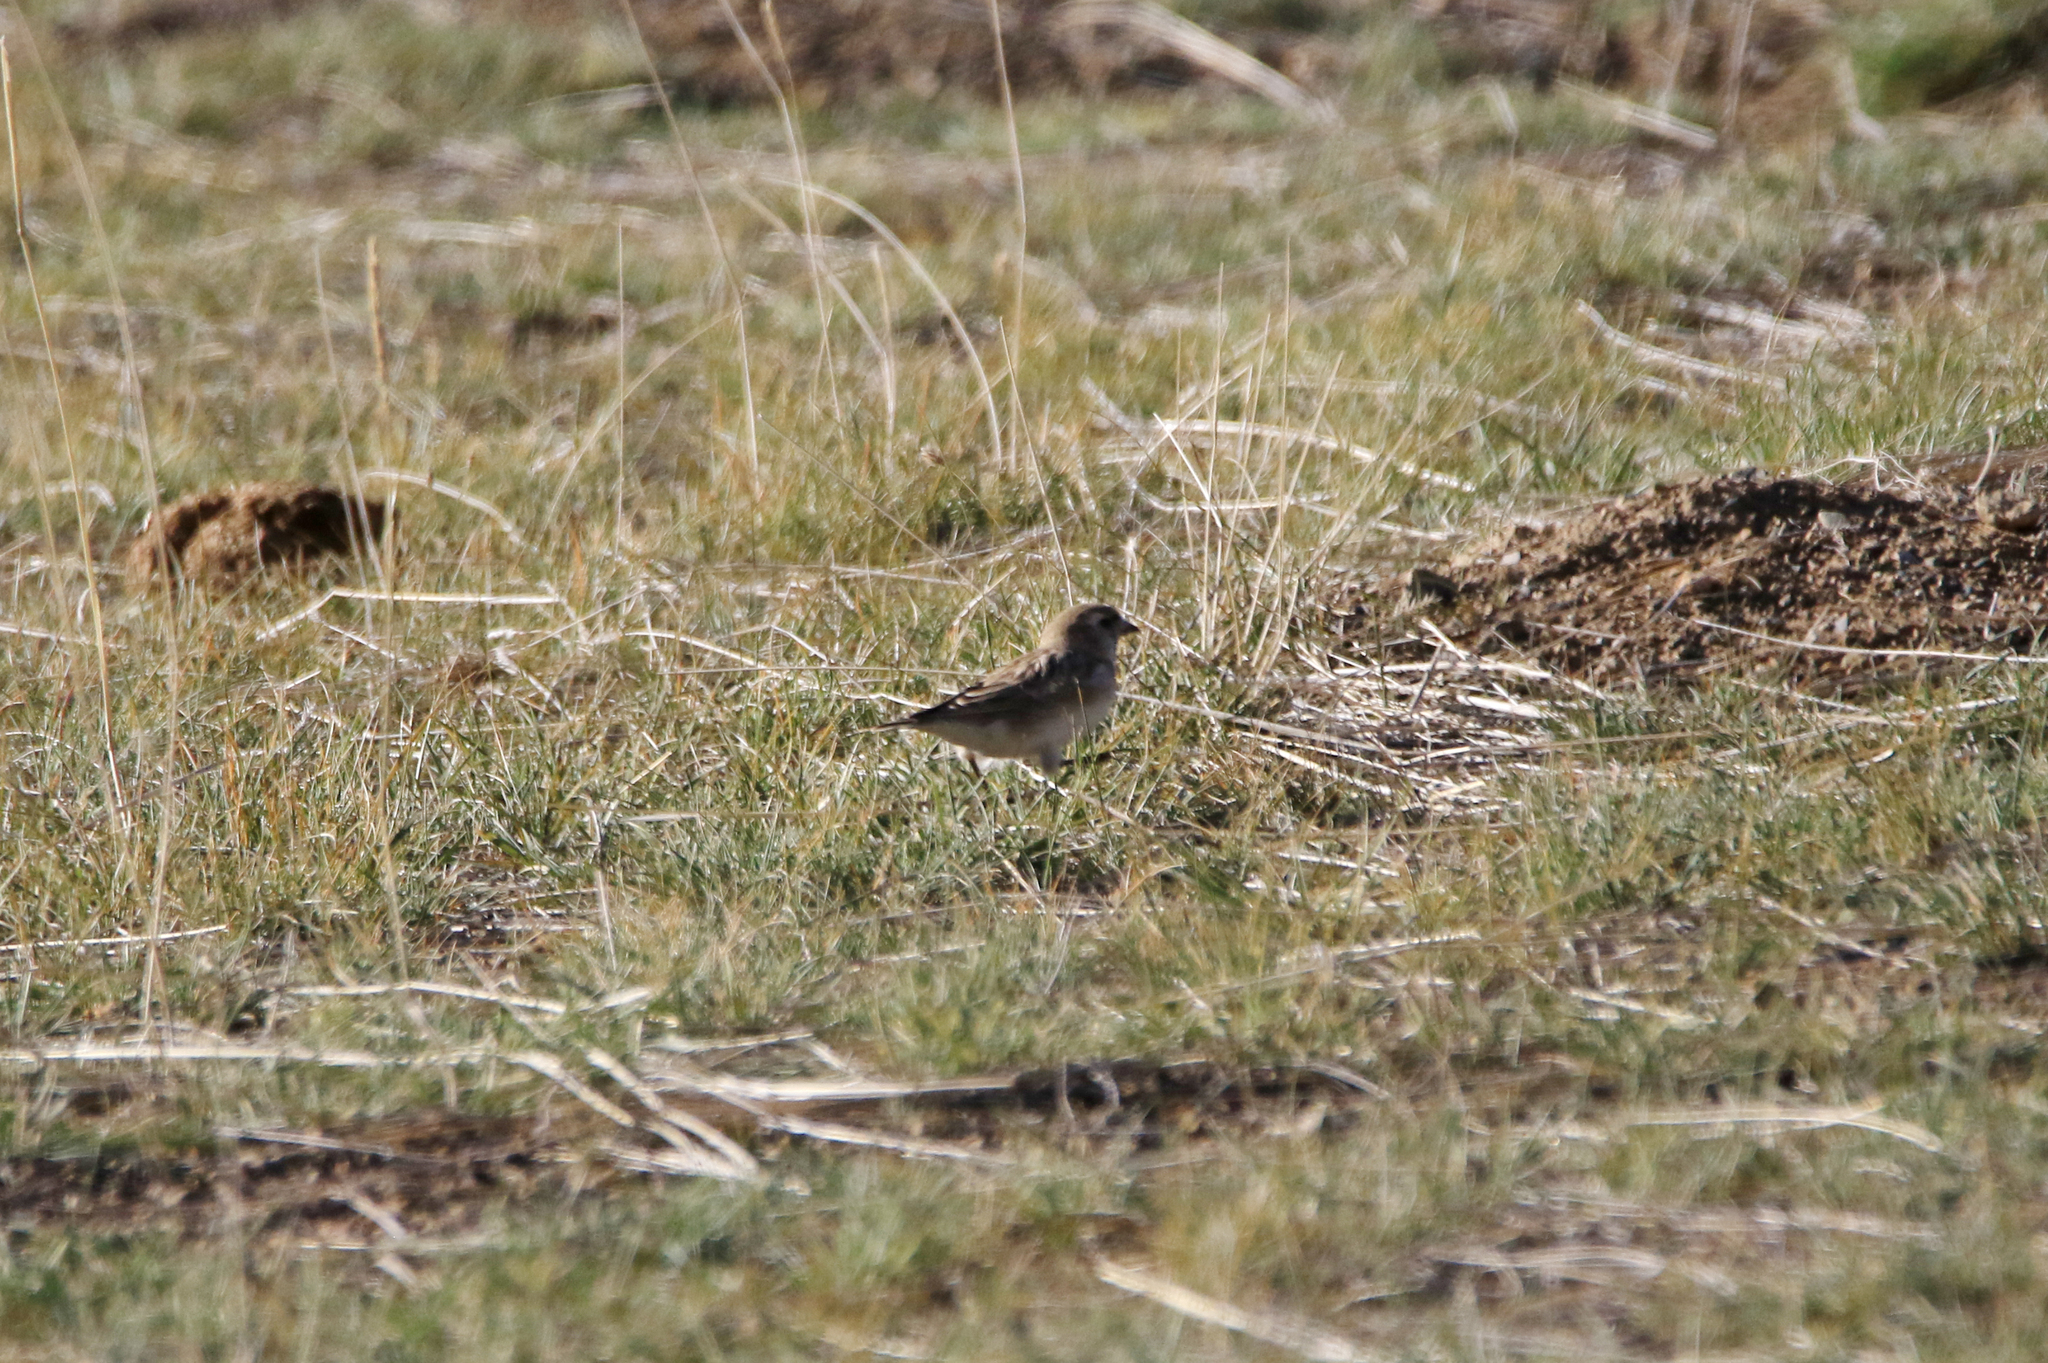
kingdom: Animalia
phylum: Chordata
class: Aves
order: Passeriformes
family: Passeridae
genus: Pyrgilauda
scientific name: Pyrgilauda davidiana
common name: Pere david's snowfinch
